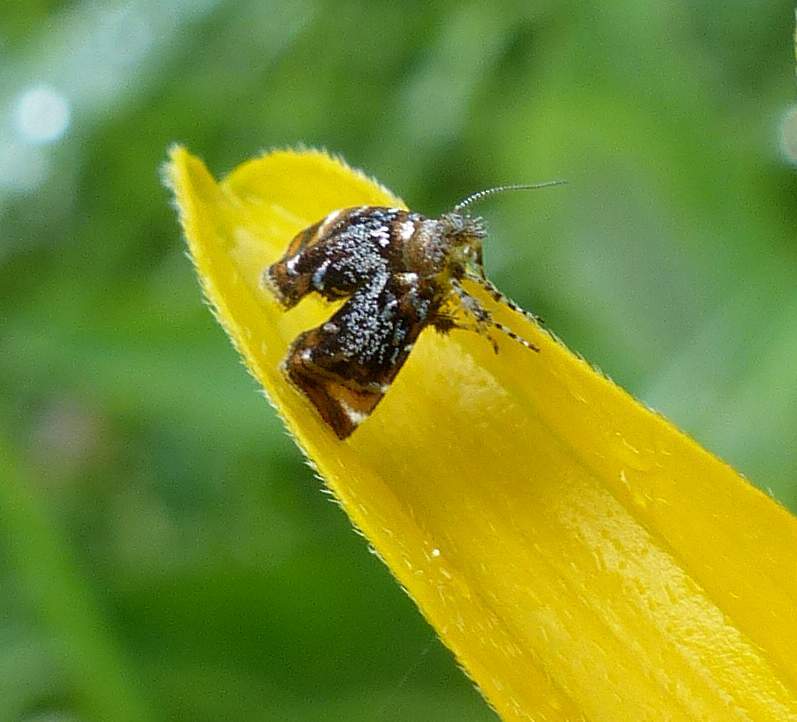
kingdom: Animalia
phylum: Arthropoda
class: Insecta
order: Lepidoptera
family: Choreutidae
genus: Prochoreutis
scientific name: Prochoreutis inflatella
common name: Skullcap skeletonizer moth
